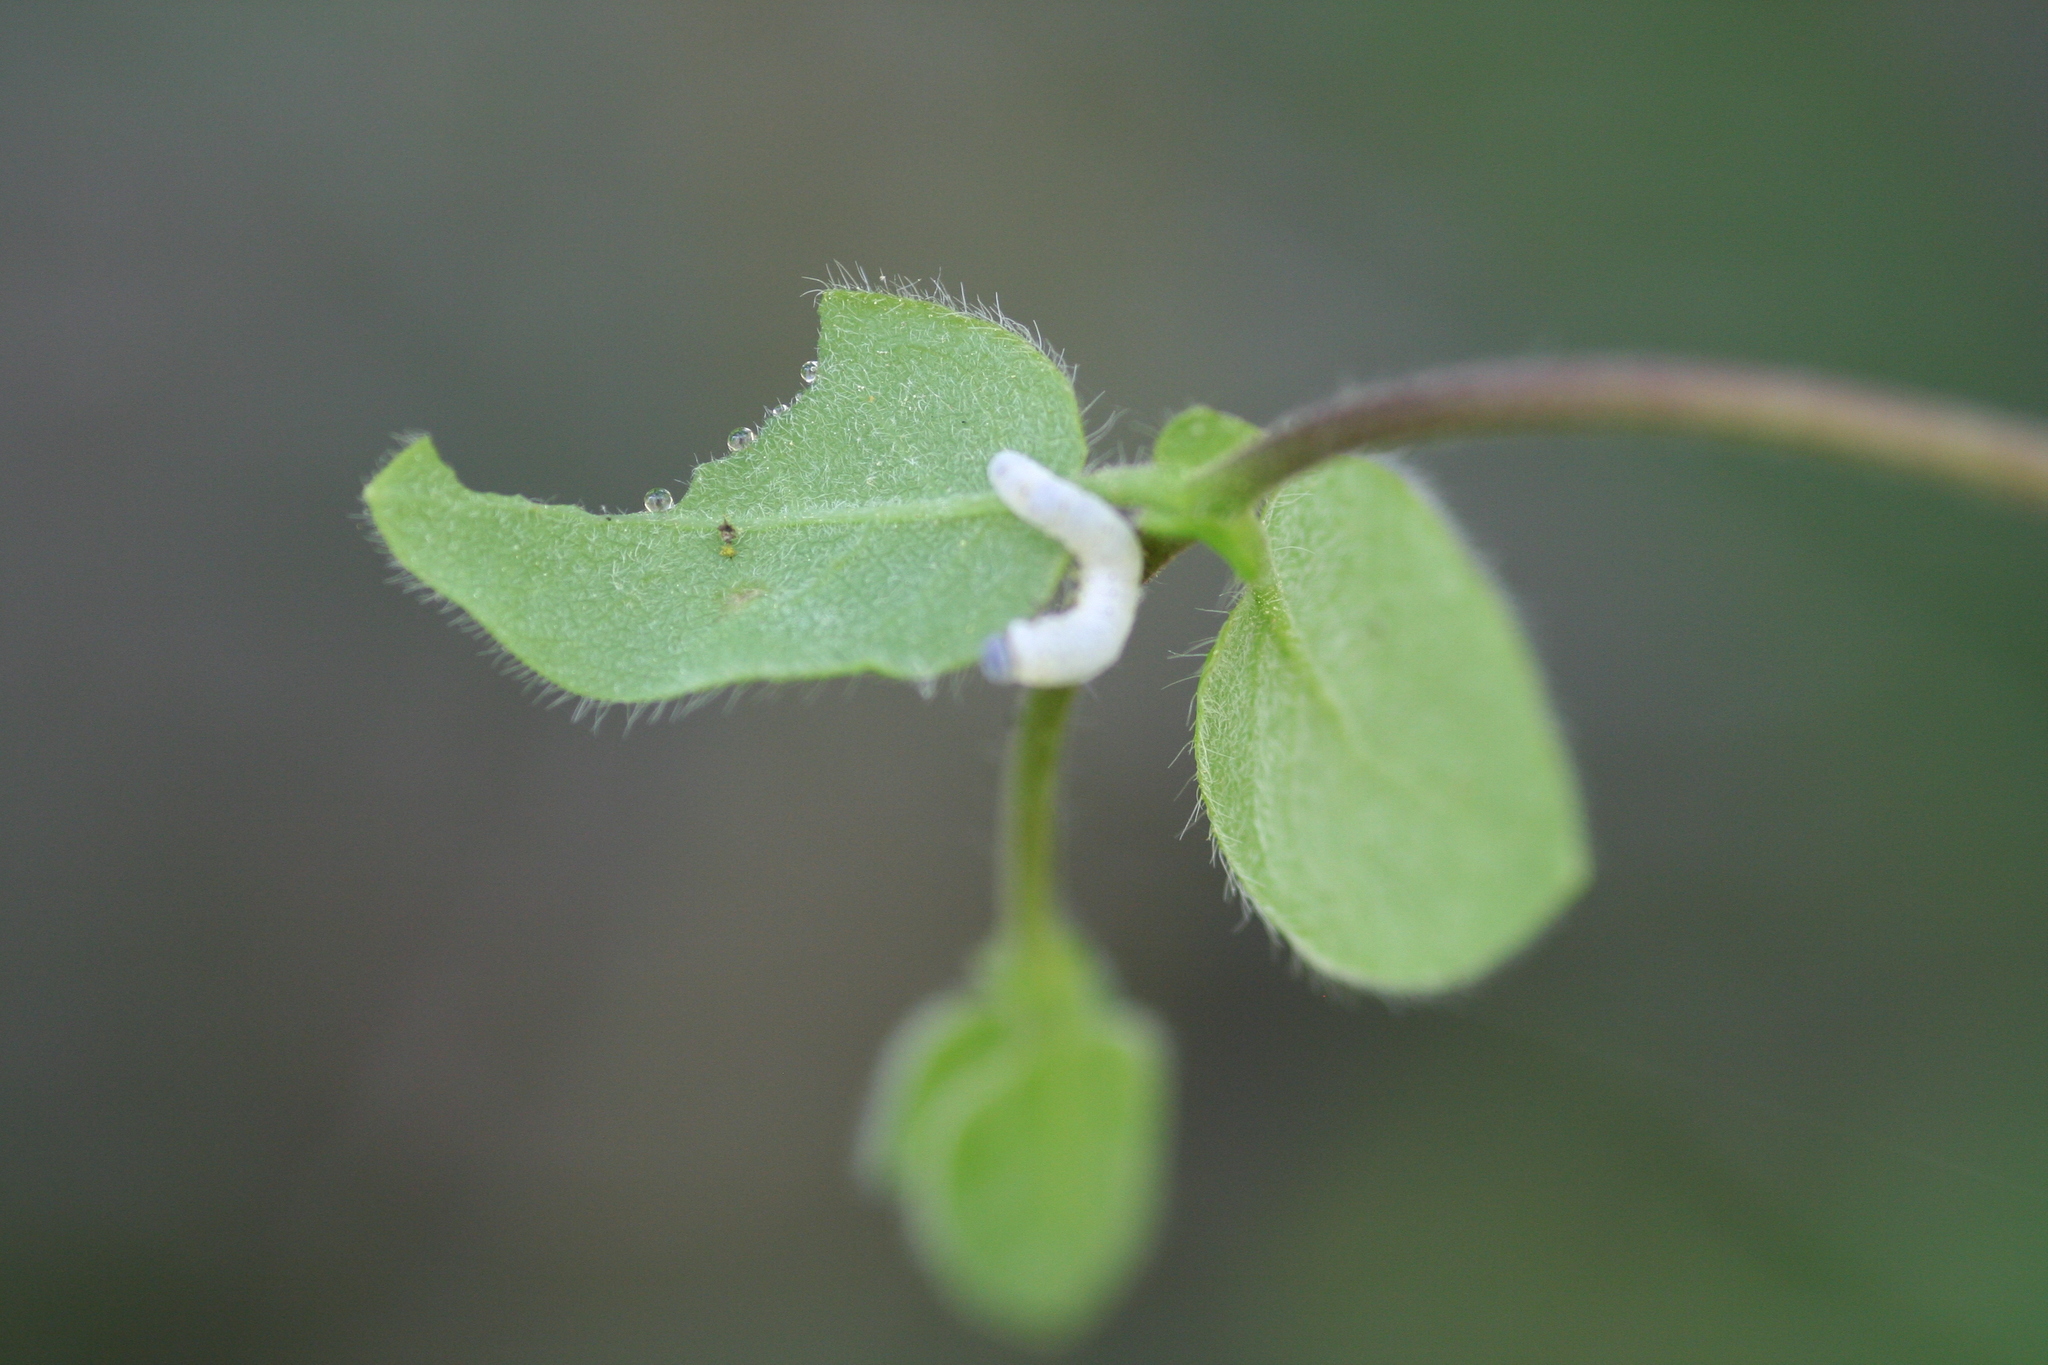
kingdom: Plantae
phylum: Tracheophyta
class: Magnoliopsida
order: Dipsacales
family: Caprifoliaceae
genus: Lonicera
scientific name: Lonicera hispidula
